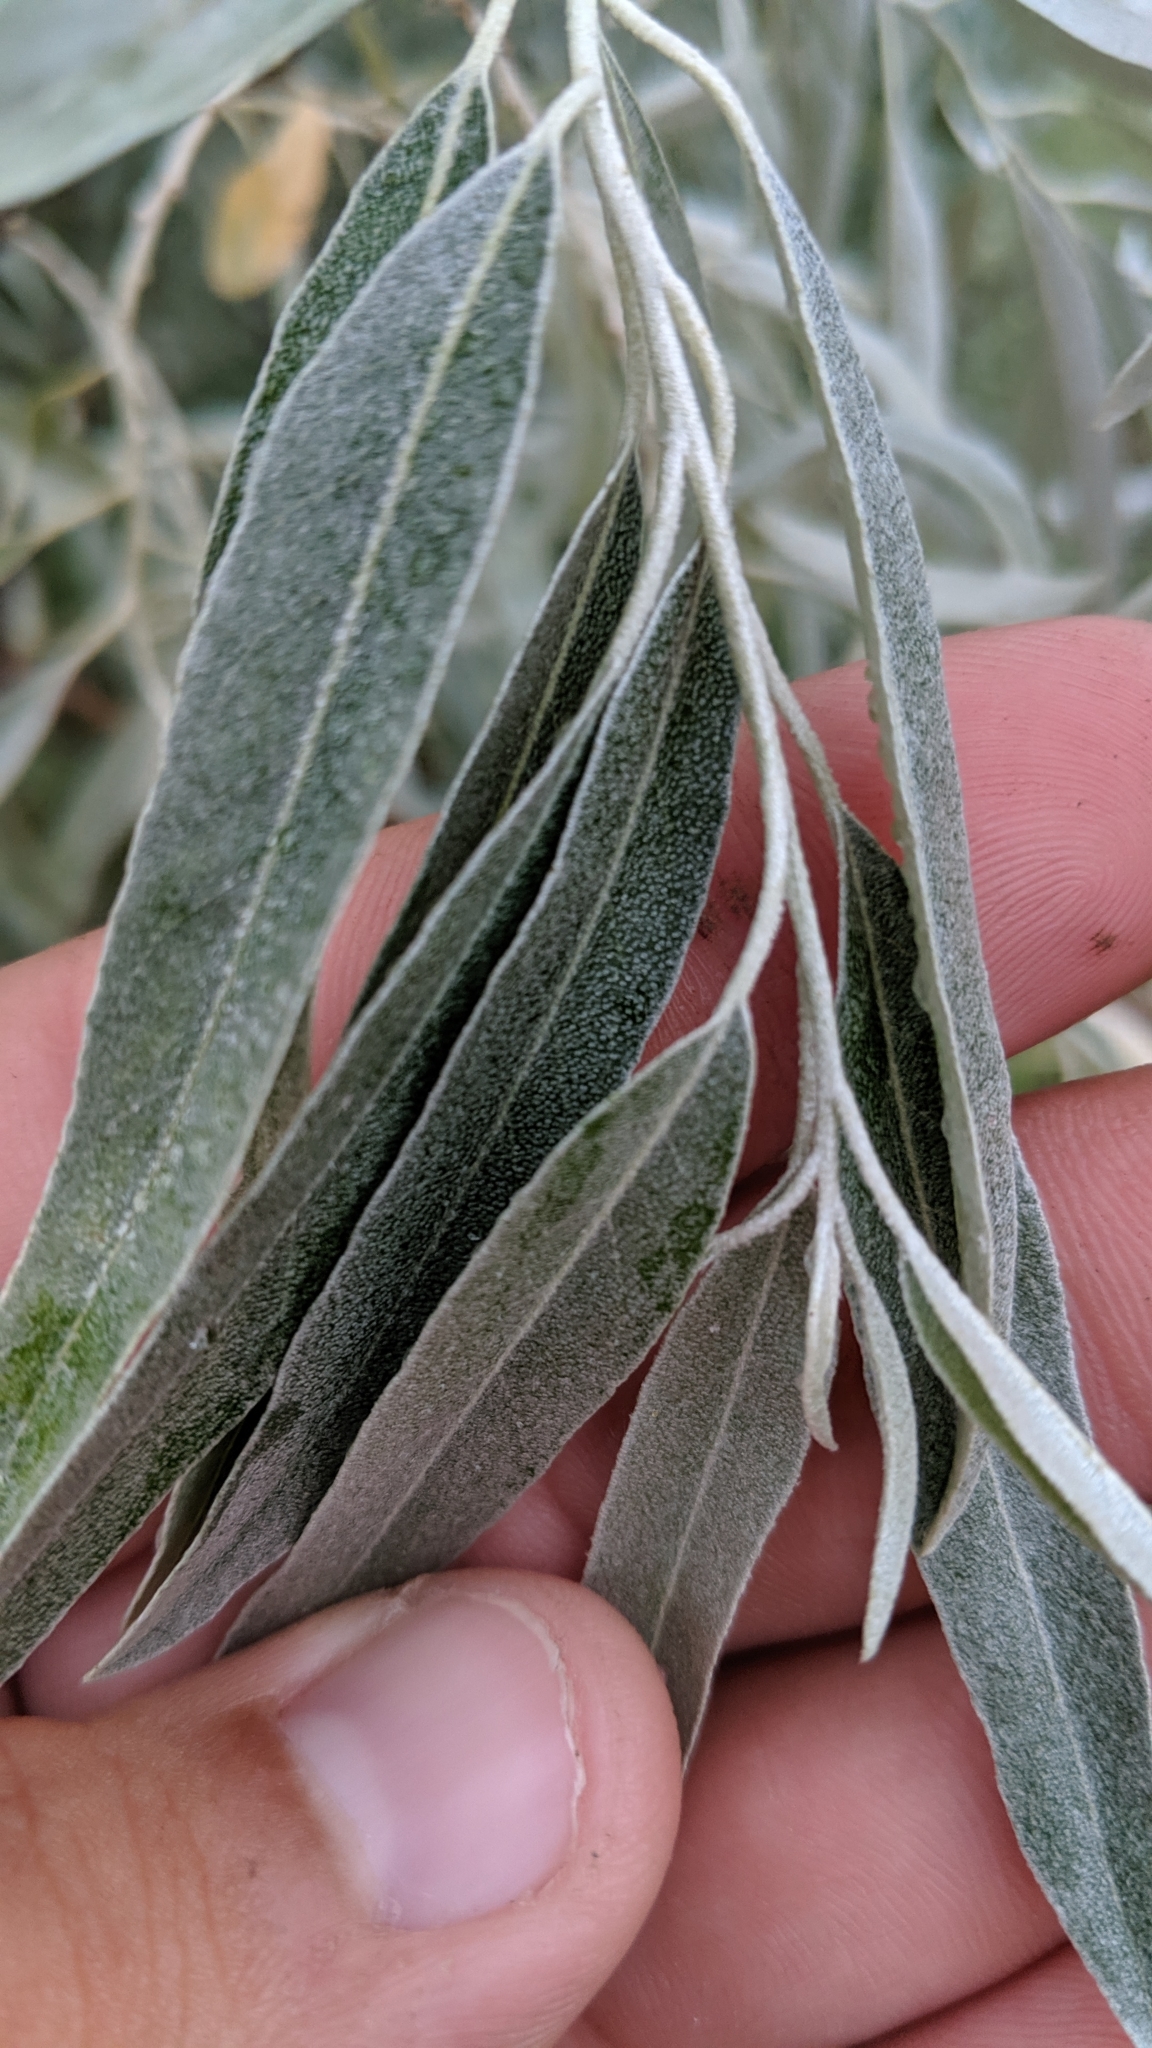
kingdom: Plantae
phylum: Tracheophyta
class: Magnoliopsida
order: Rosales
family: Elaeagnaceae
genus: Elaeagnus
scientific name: Elaeagnus angustifolia
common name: Russian olive
